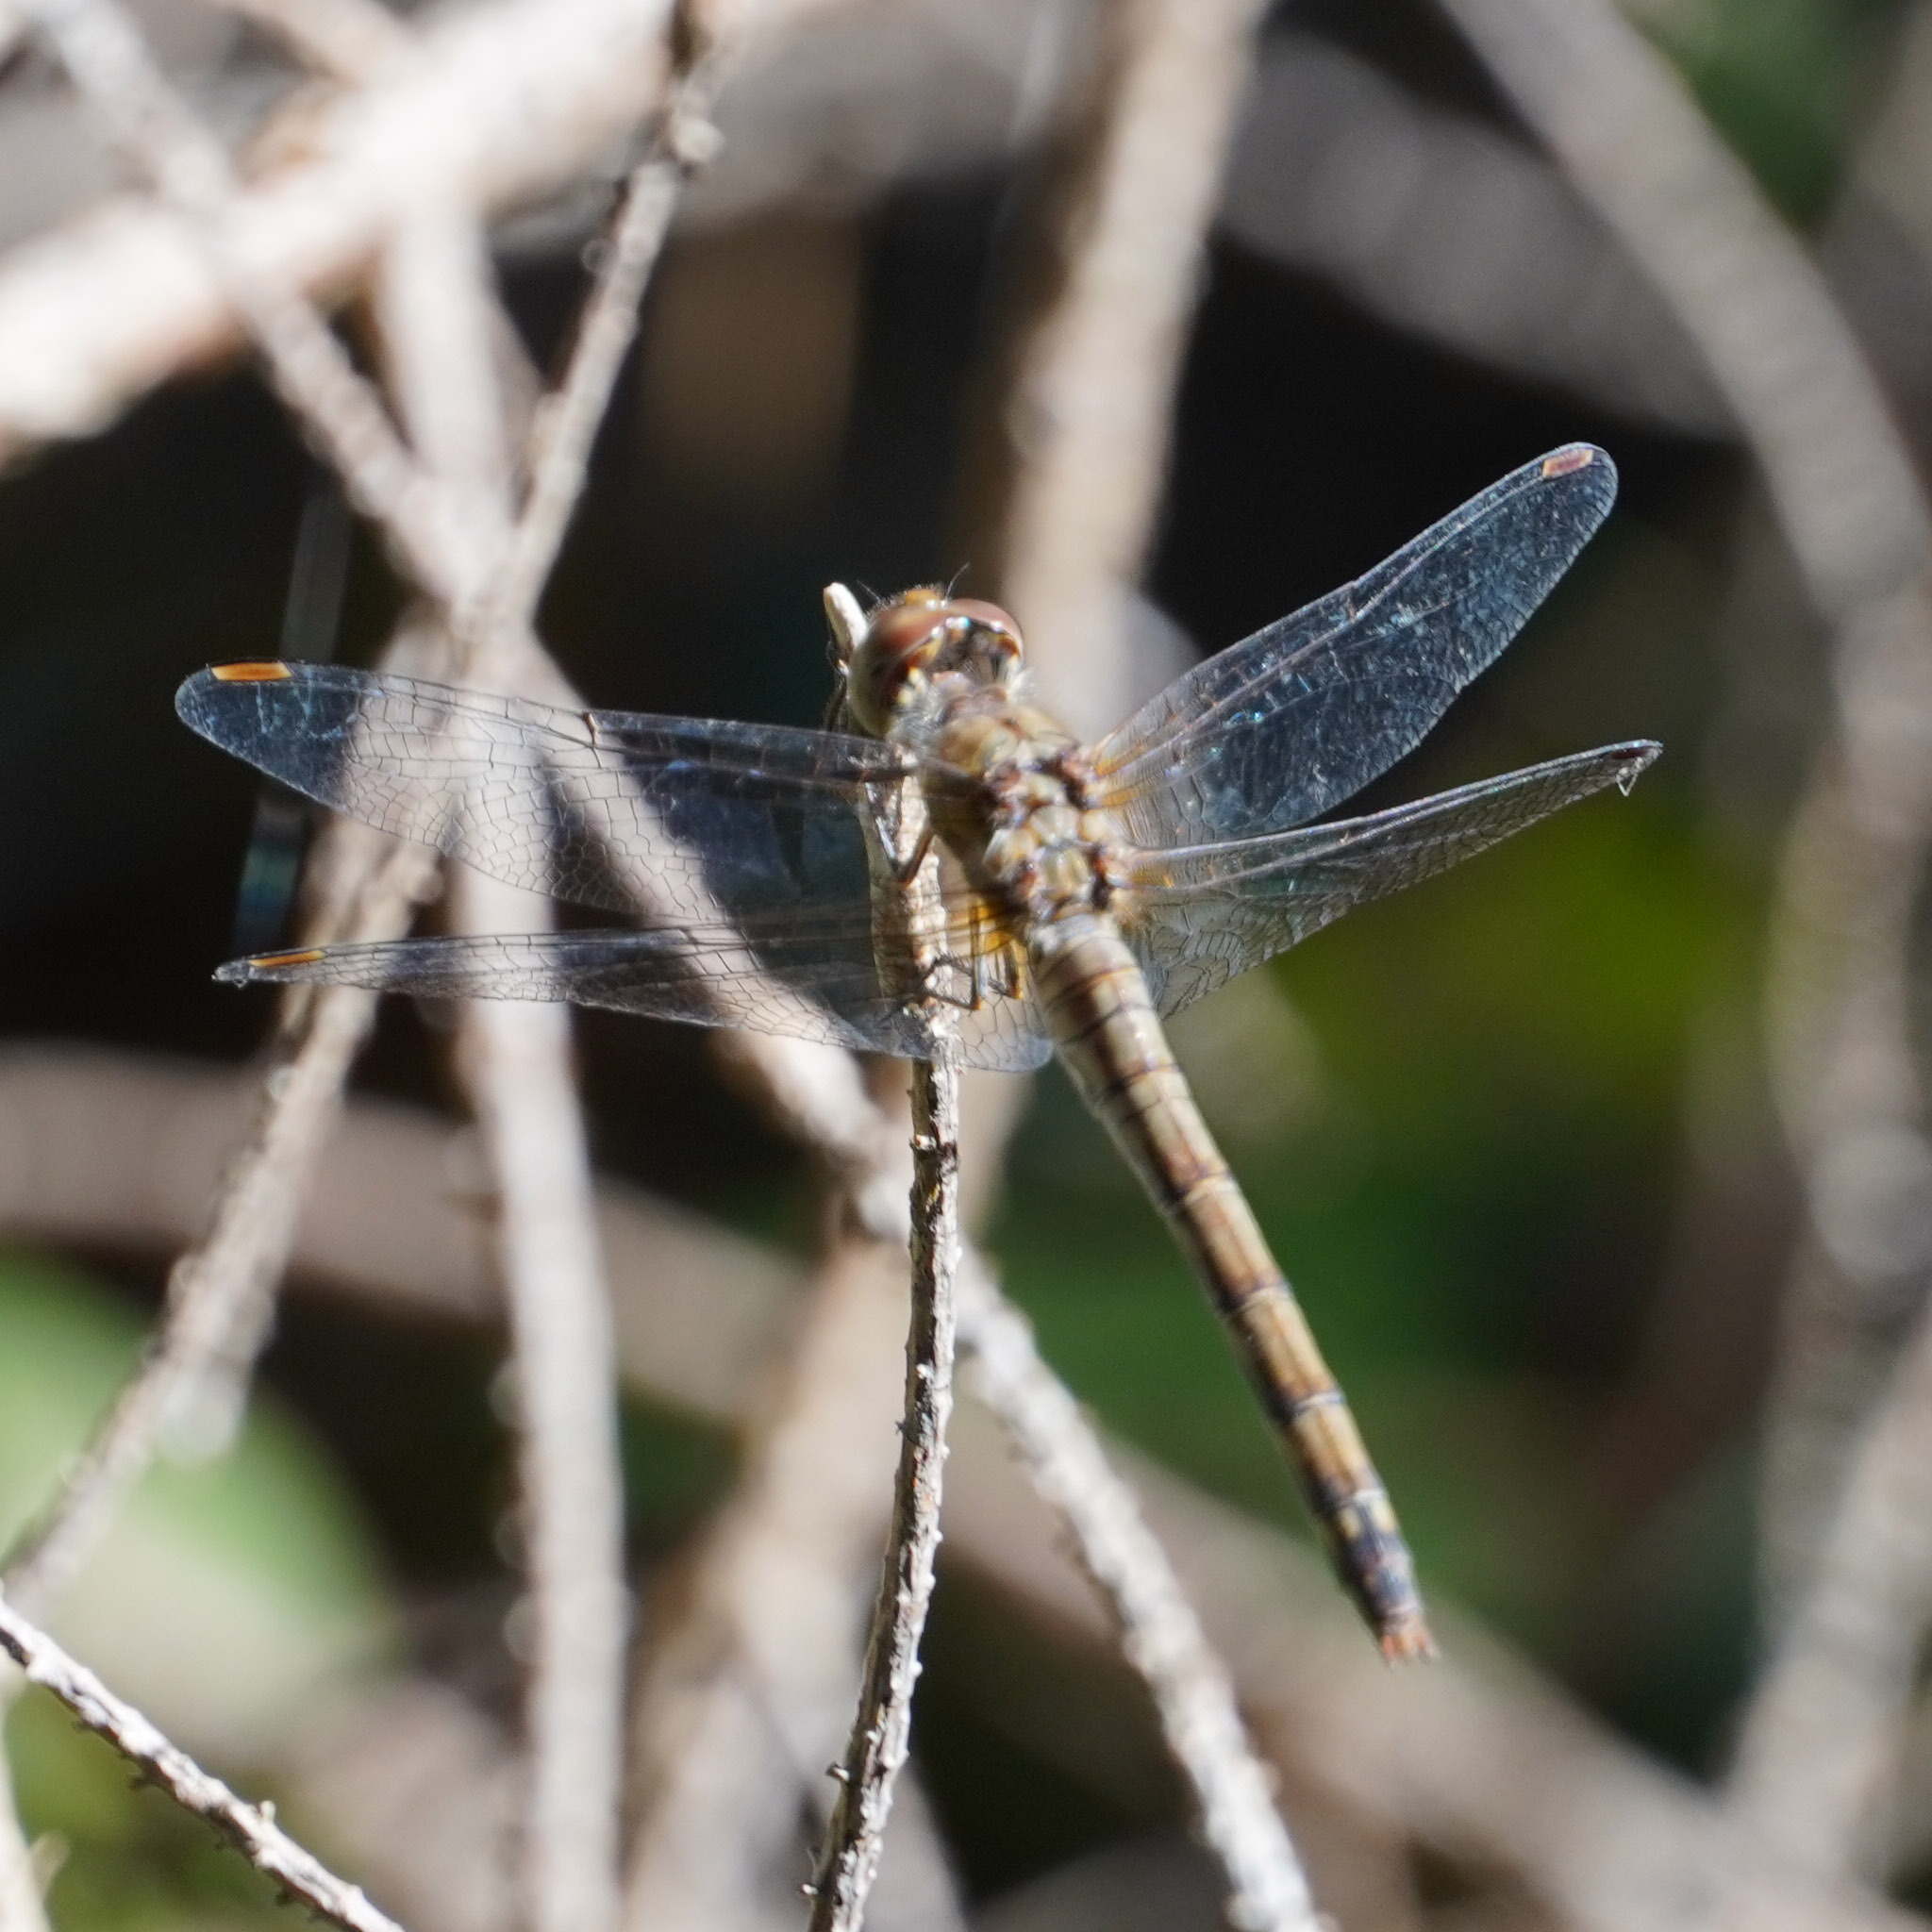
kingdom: Animalia
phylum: Arthropoda
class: Insecta
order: Odonata
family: Libellulidae
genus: Sympetrum
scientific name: Sympetrum striolatum
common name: Common darter
